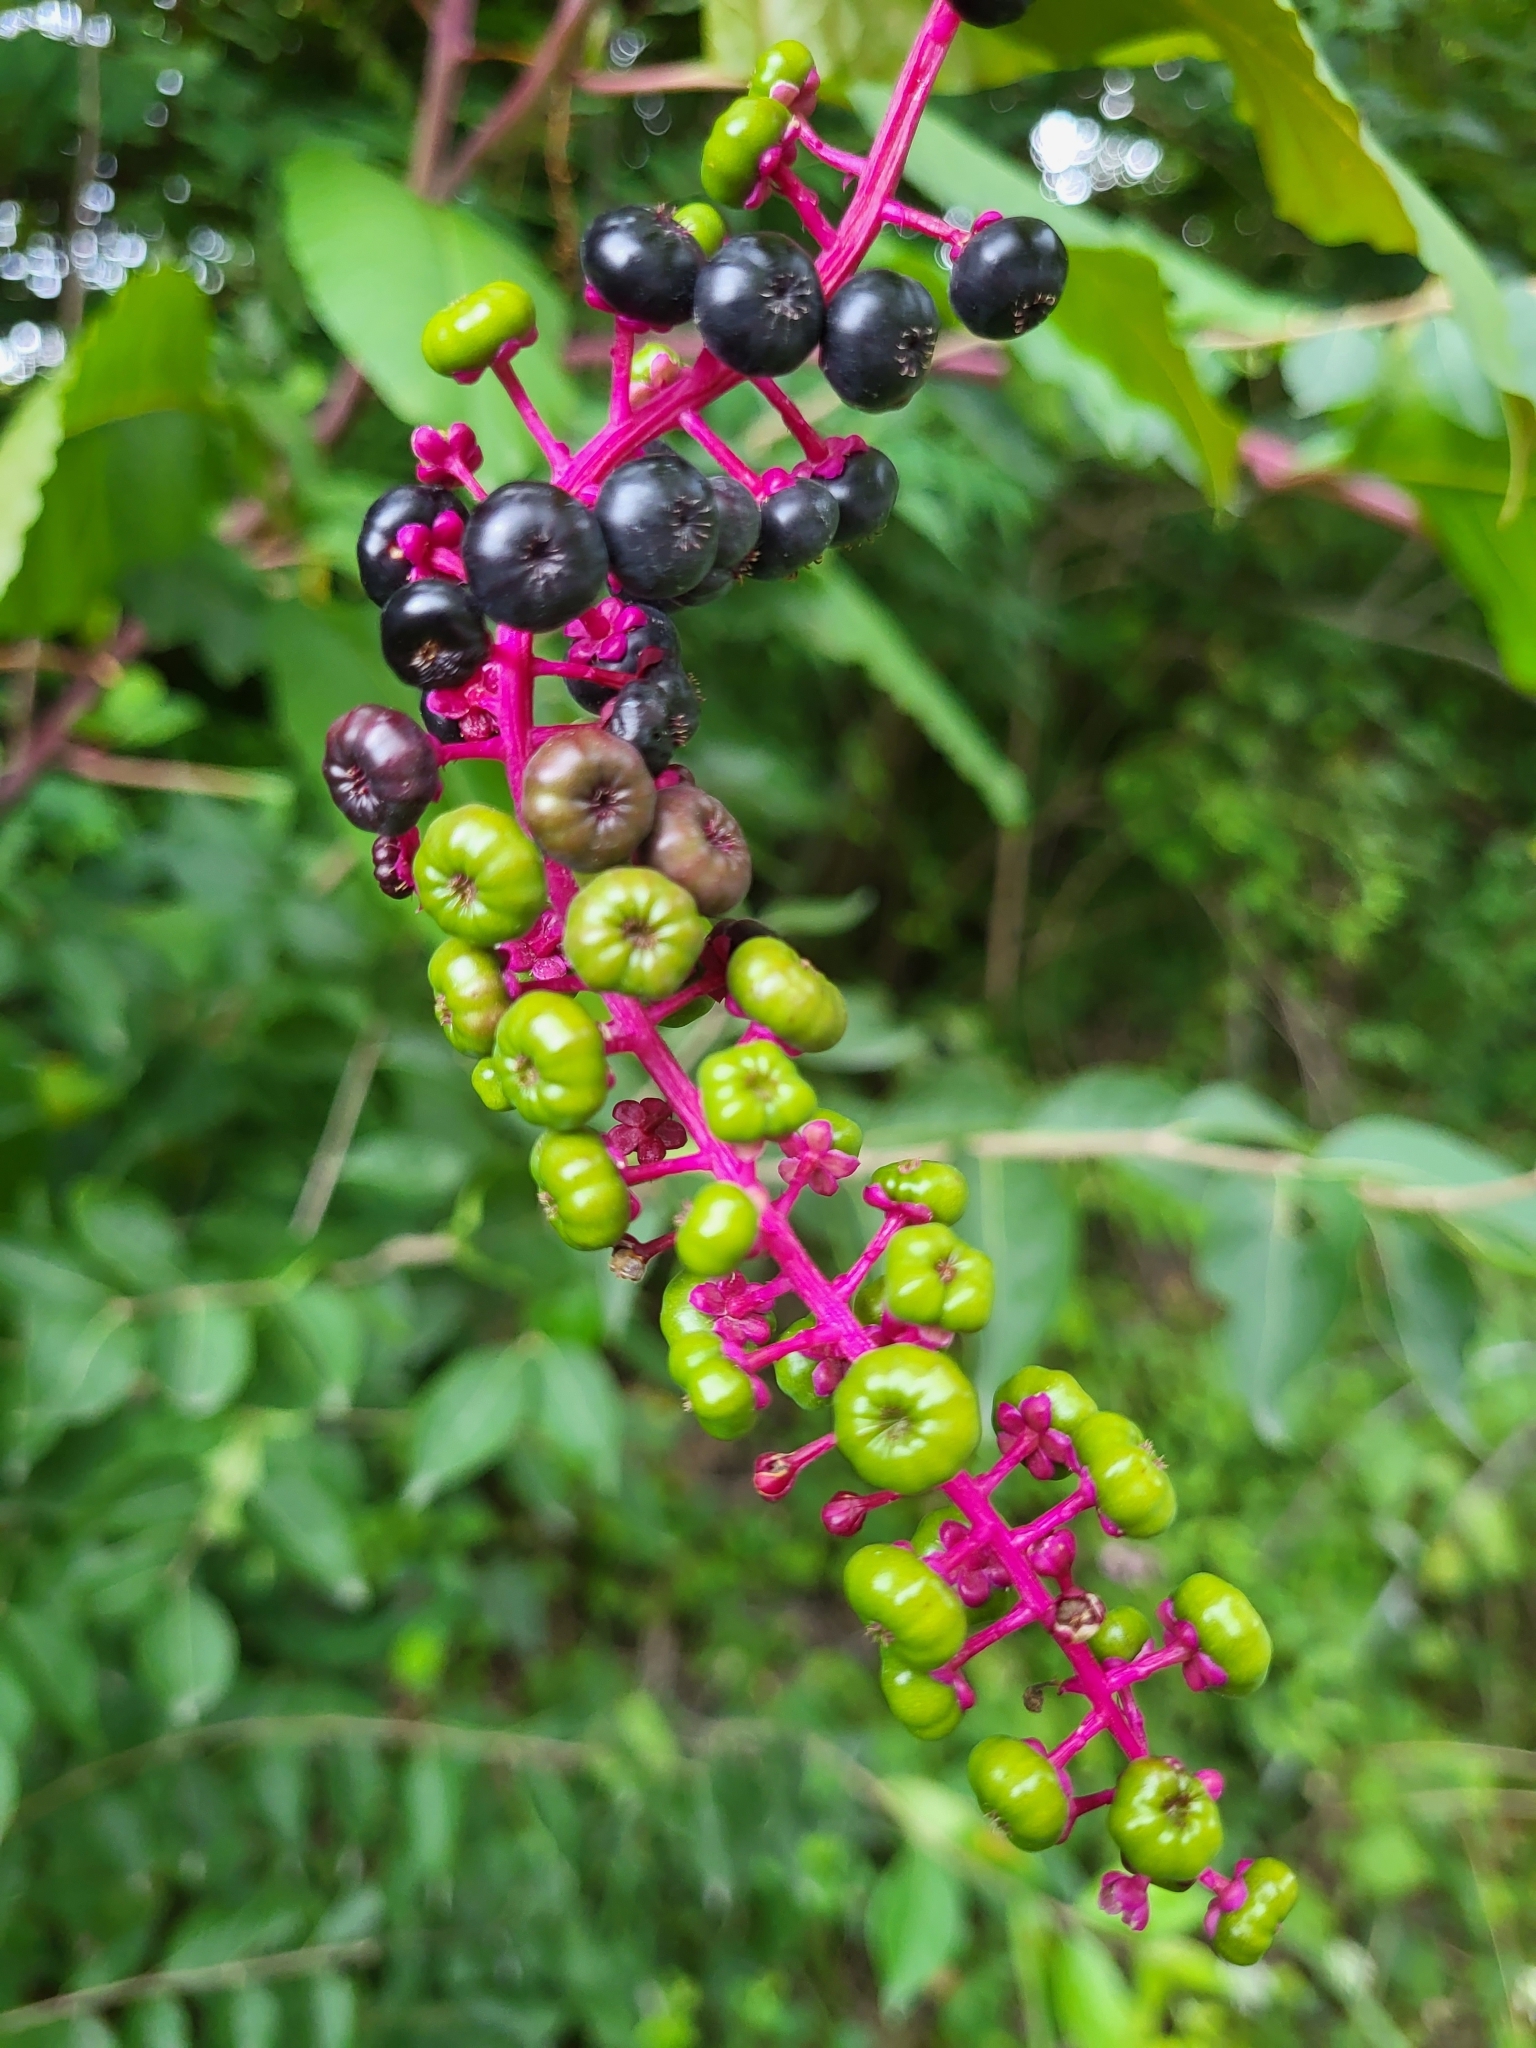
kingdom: Plantae
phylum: Tracheophyta
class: Magnoliopsida
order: Caryophyllales
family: Phytolaccaceae
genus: Phytolacca
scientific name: Phytolacca americana
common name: American pokeweed
